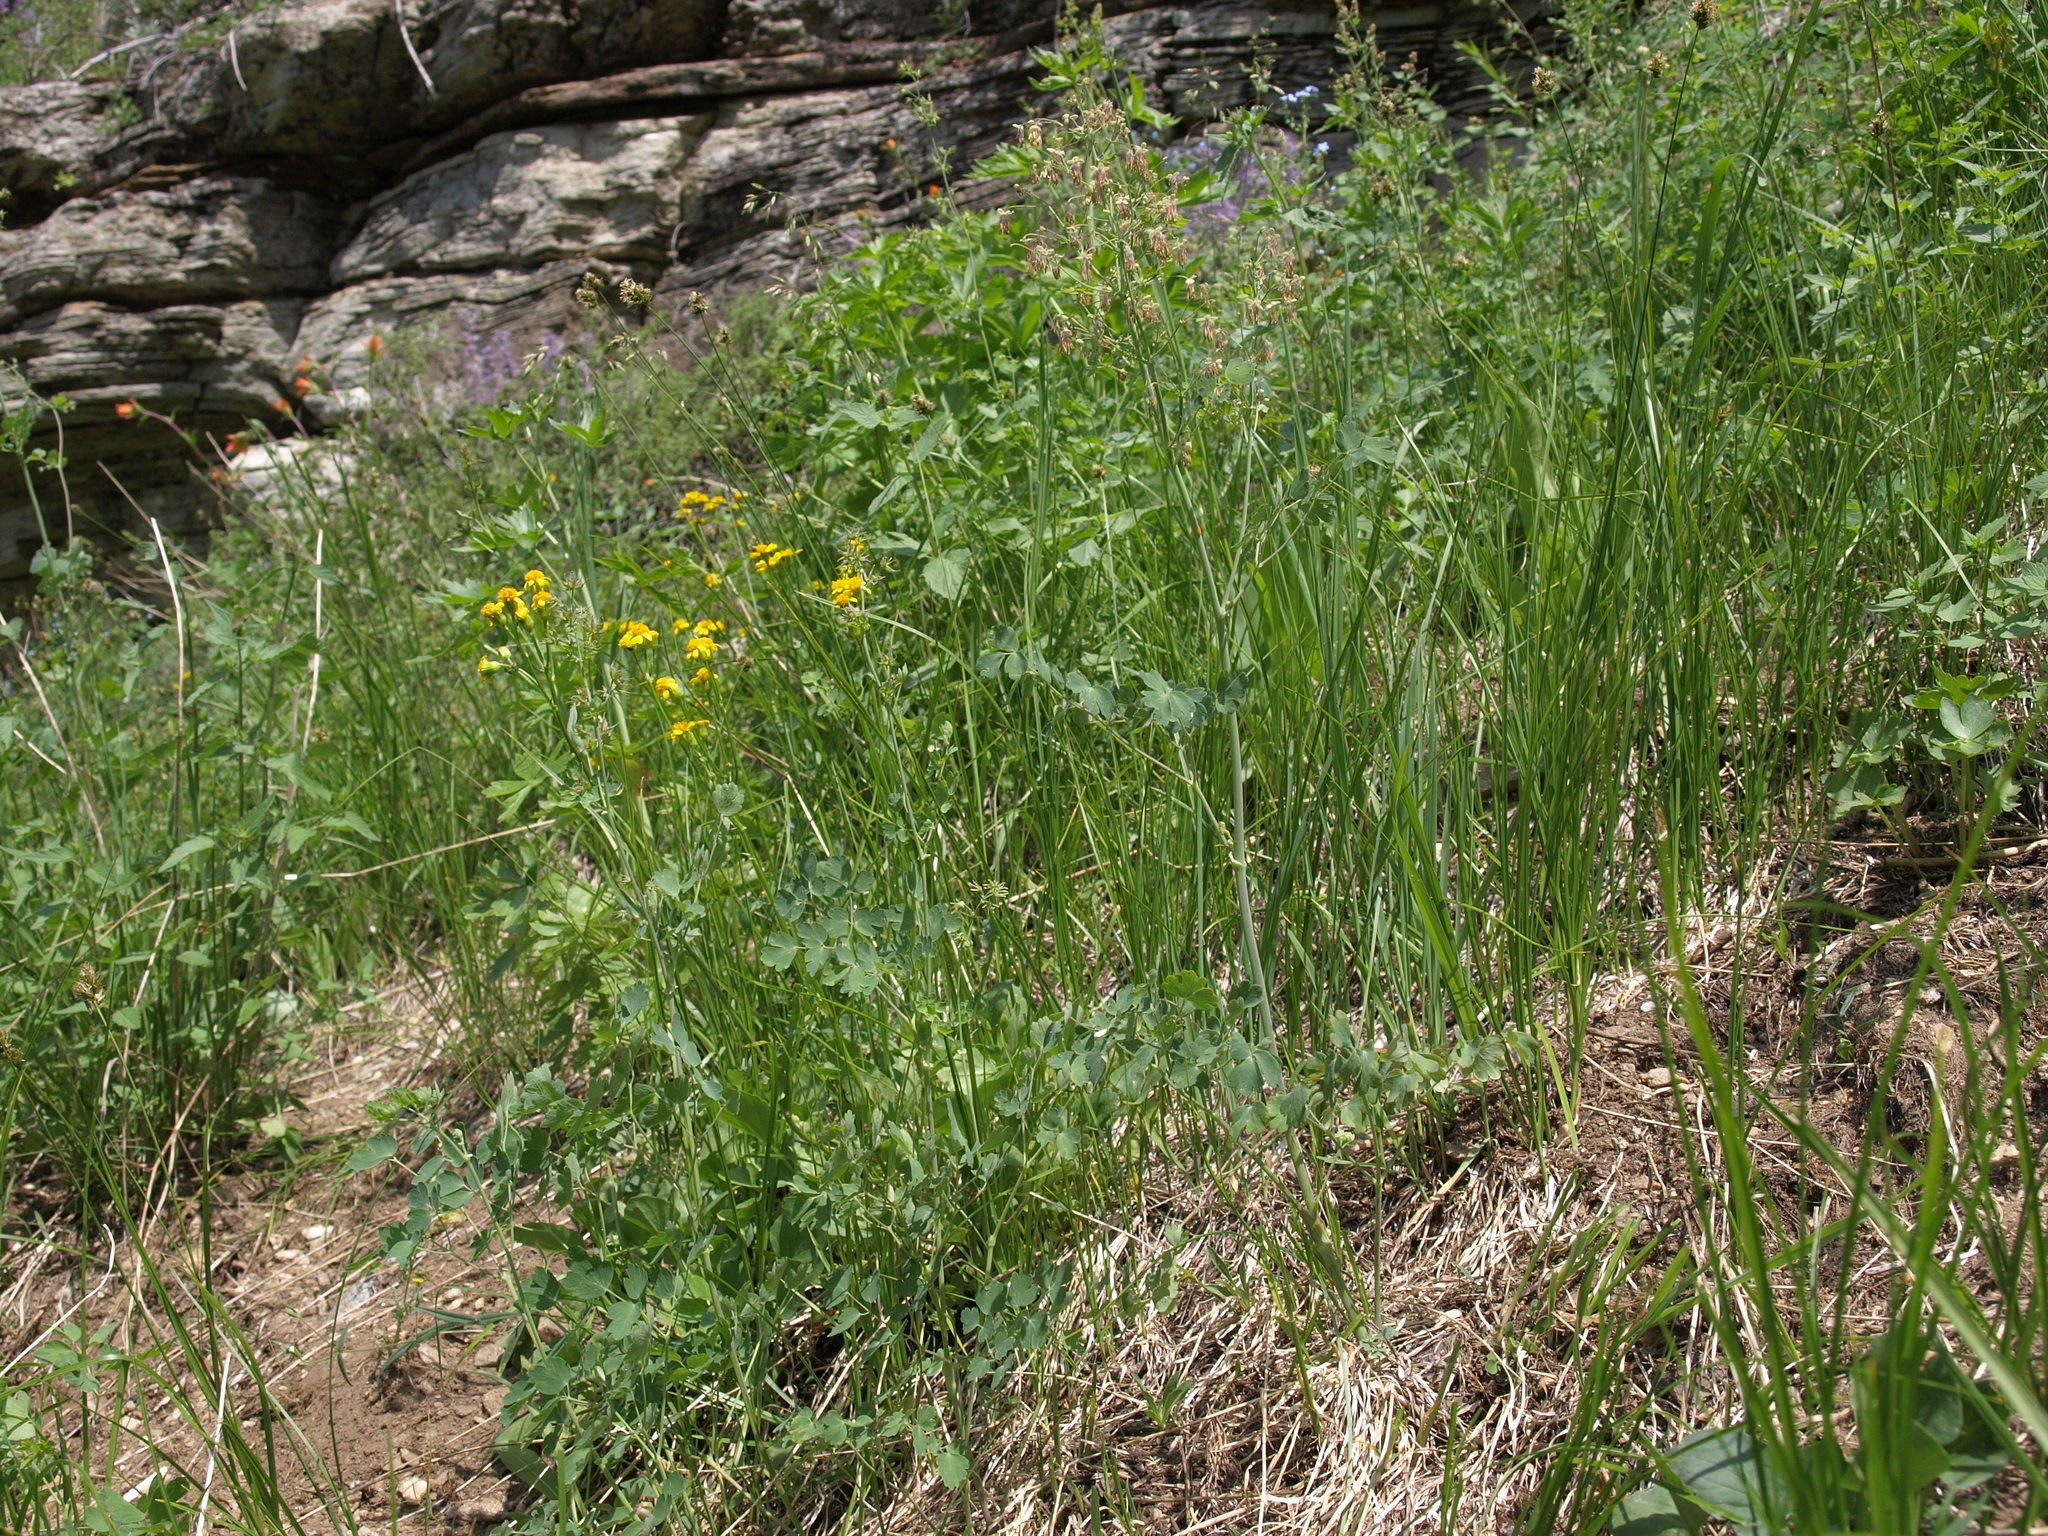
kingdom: Plantae
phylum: Tracheophyta
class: Magnoliopsida
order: Ranunculales
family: Ranunculaceae
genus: Thalictrum
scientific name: Thalictrum fendleri
